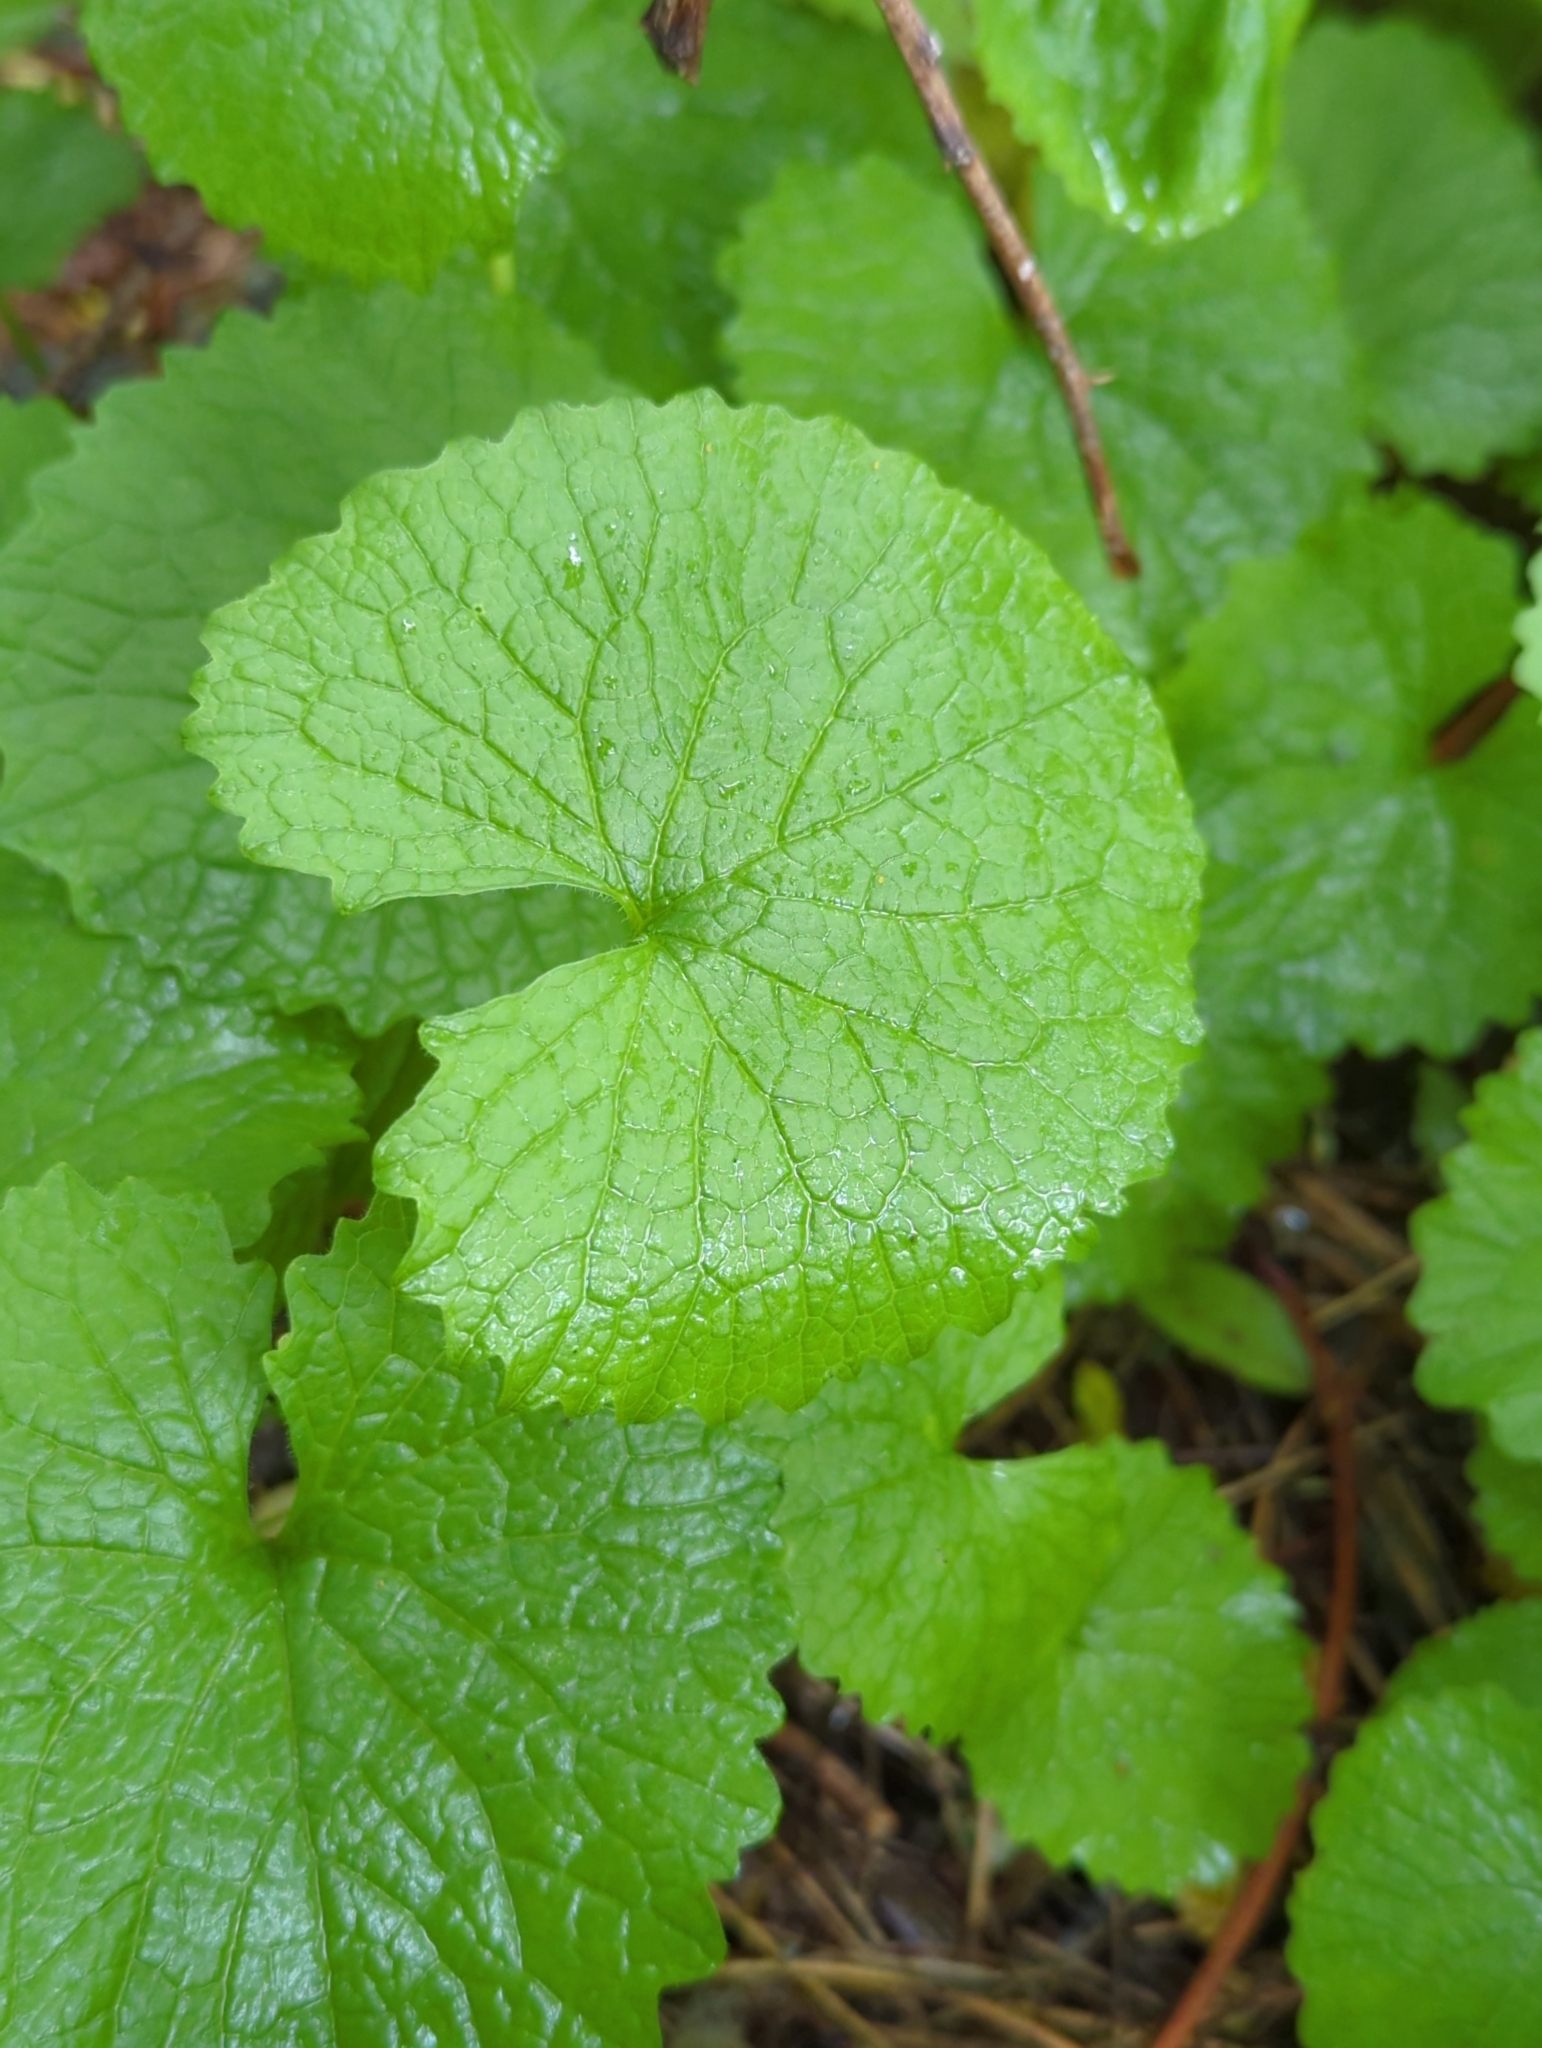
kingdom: Plantae
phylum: Tracheophyta
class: Magnoliopsida
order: Brassicales
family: Brassicaceae
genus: Alliaria
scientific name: Alliaria petiolata
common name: Garlic mustard
